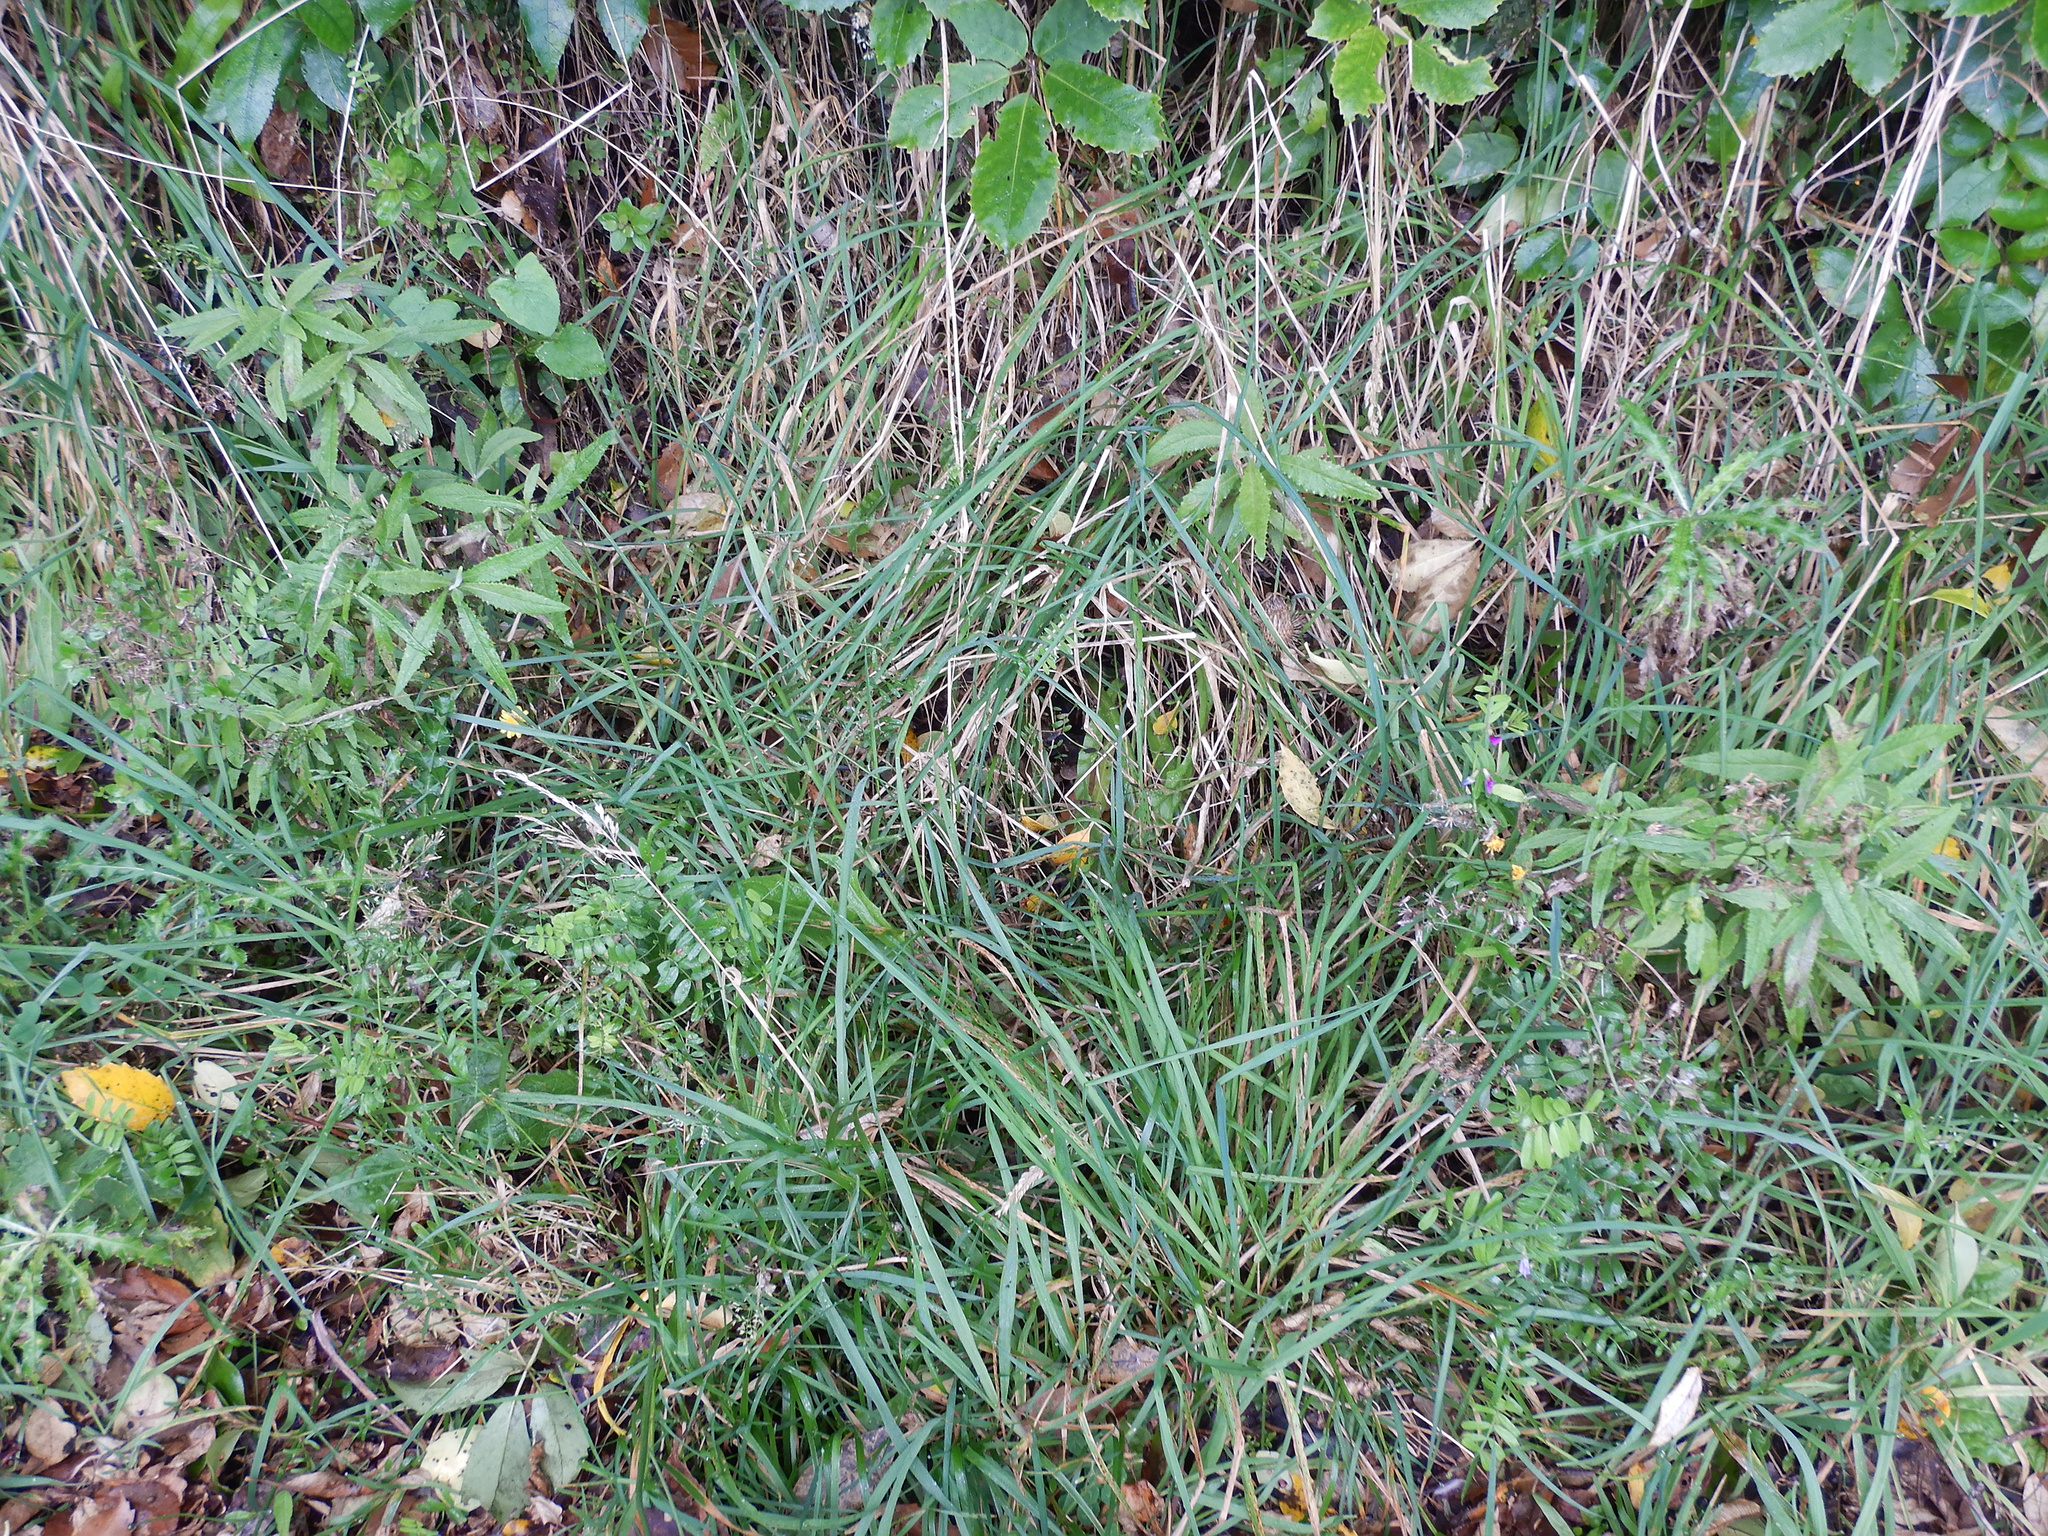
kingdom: Plantae
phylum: Tracheophyta
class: Magnoliopsida
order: Asterales
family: Asteraceae
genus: Senecio
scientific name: Senecio minimus
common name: Toothed fireweed
